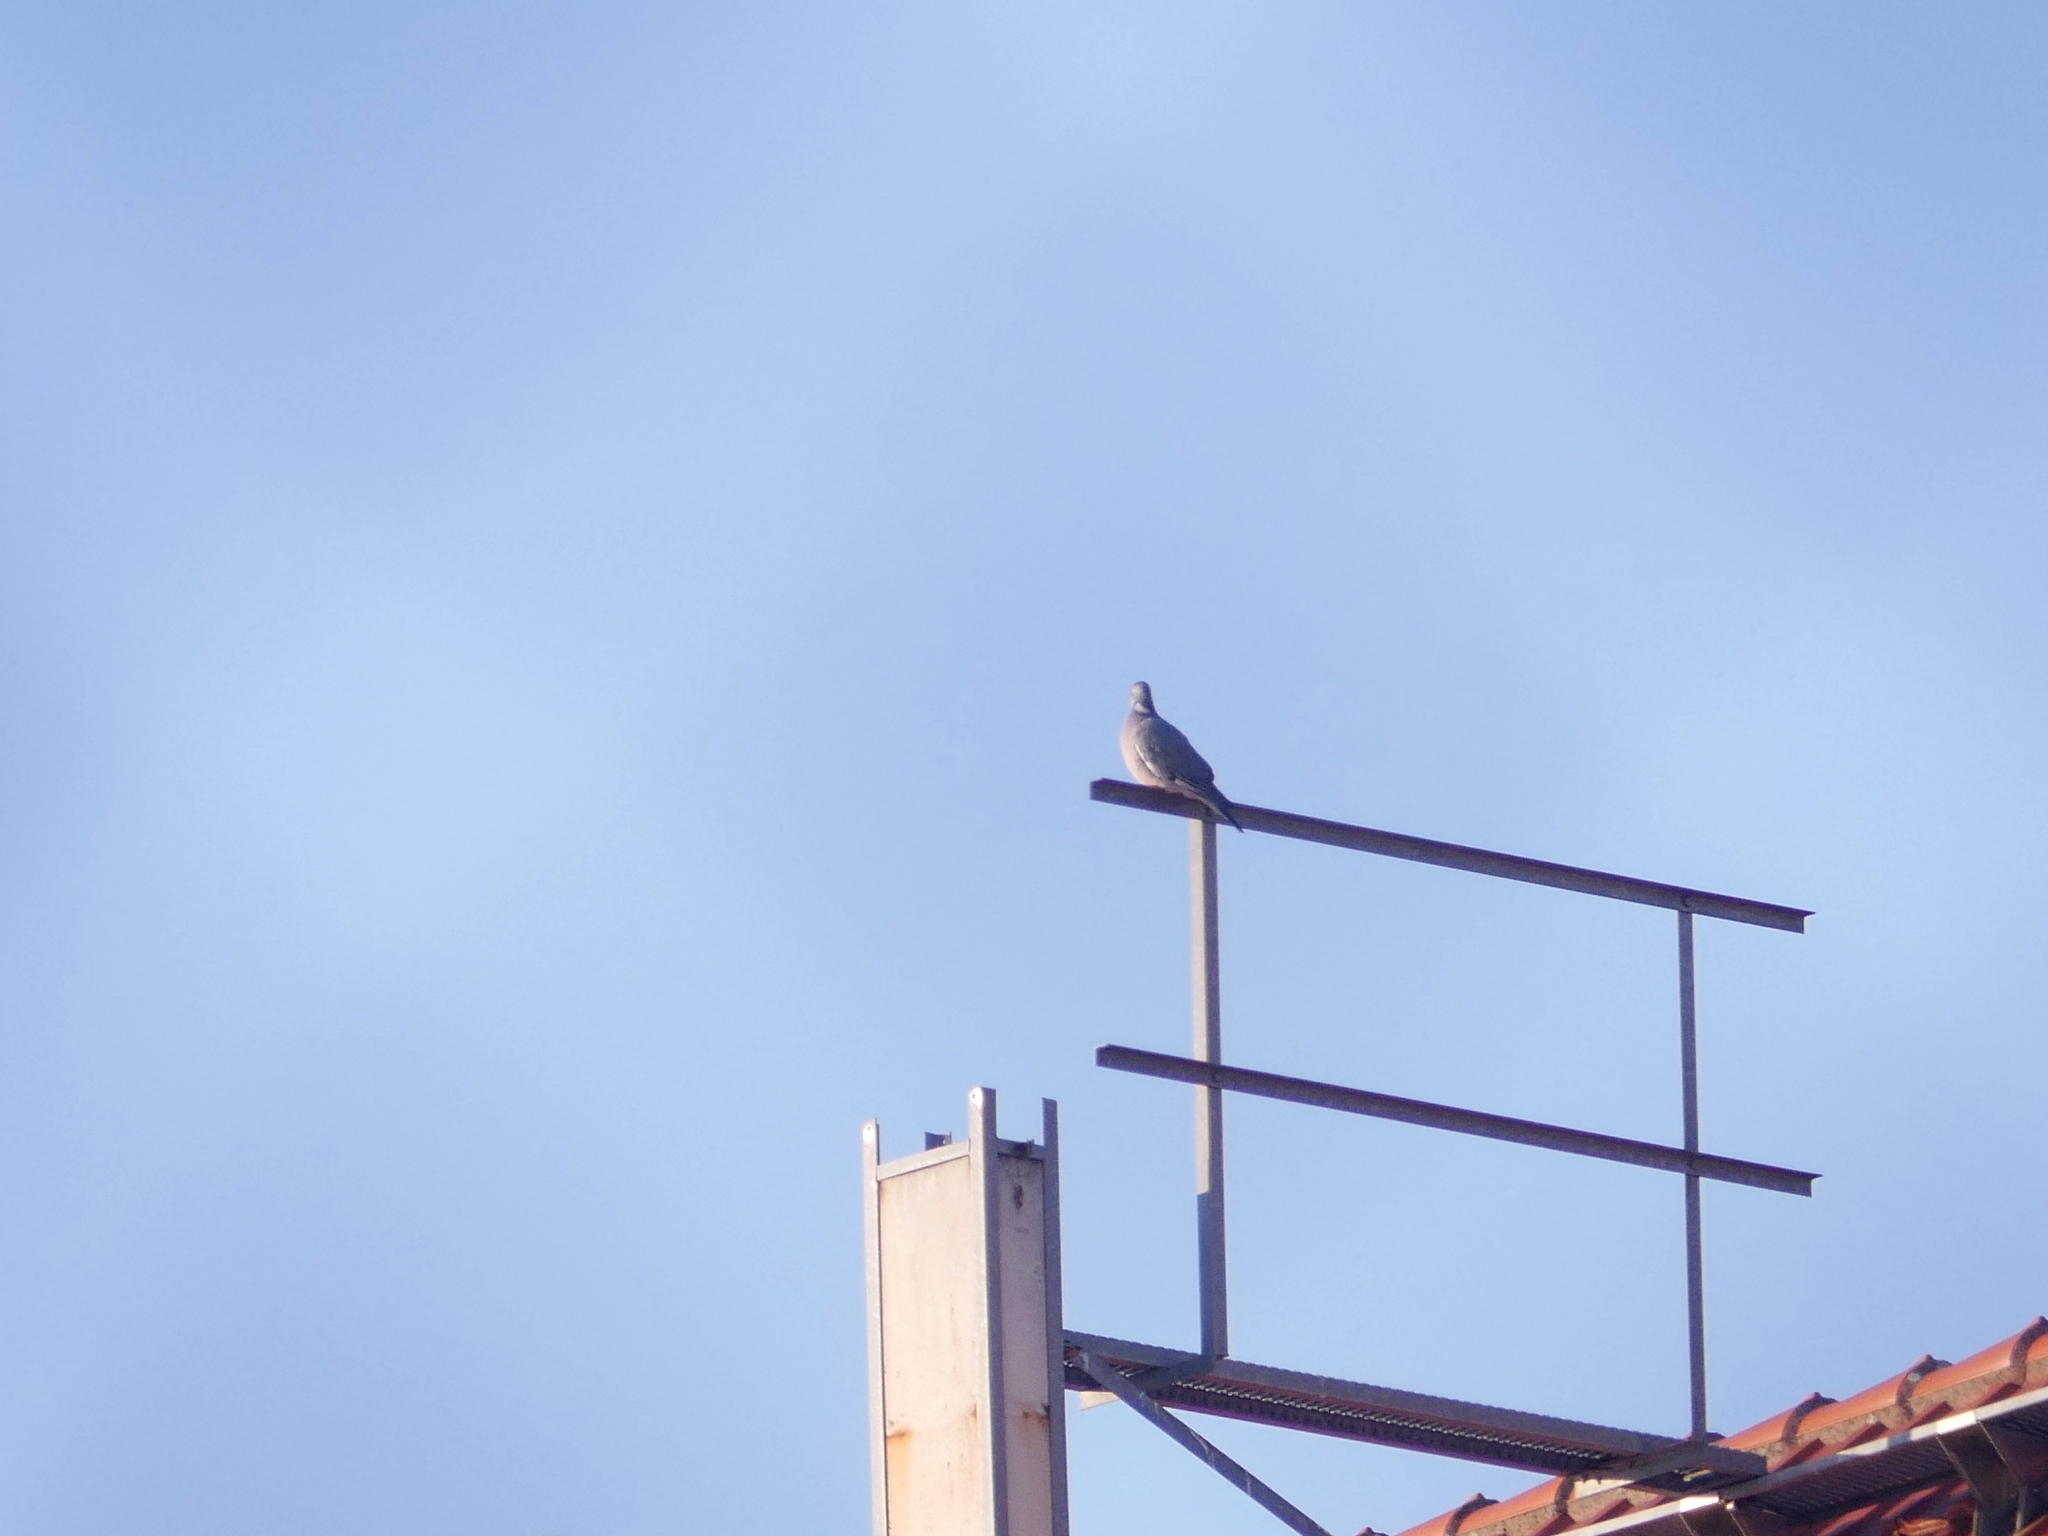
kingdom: Animalia
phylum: Chordata
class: Aves
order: Columbiformes
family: Columbidae
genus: Columba
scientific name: Columba palumbus
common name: Common wood pigeon
